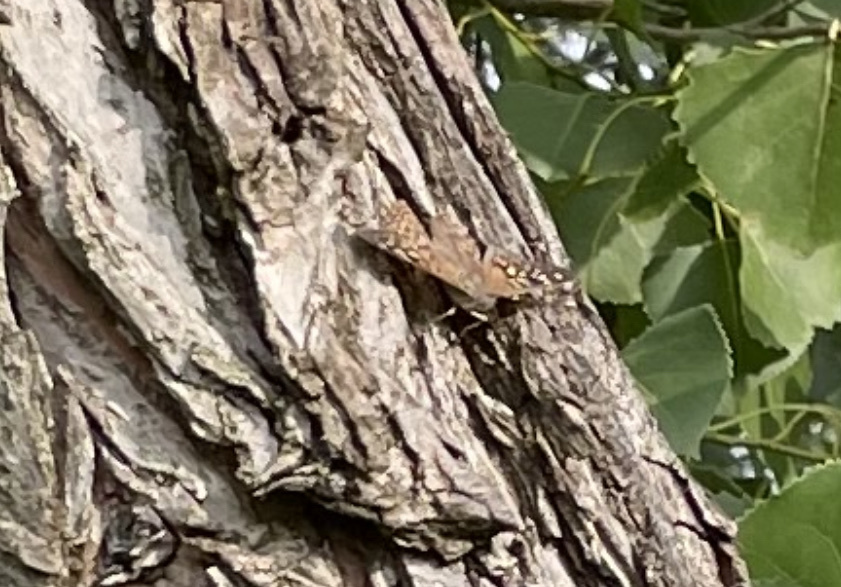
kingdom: Animalia
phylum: Arthropoda
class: Insecta
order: Lepidoptera
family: Nymphalidae
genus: Asterocampa
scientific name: Asterocampa celtis
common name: Hackberry emperor
